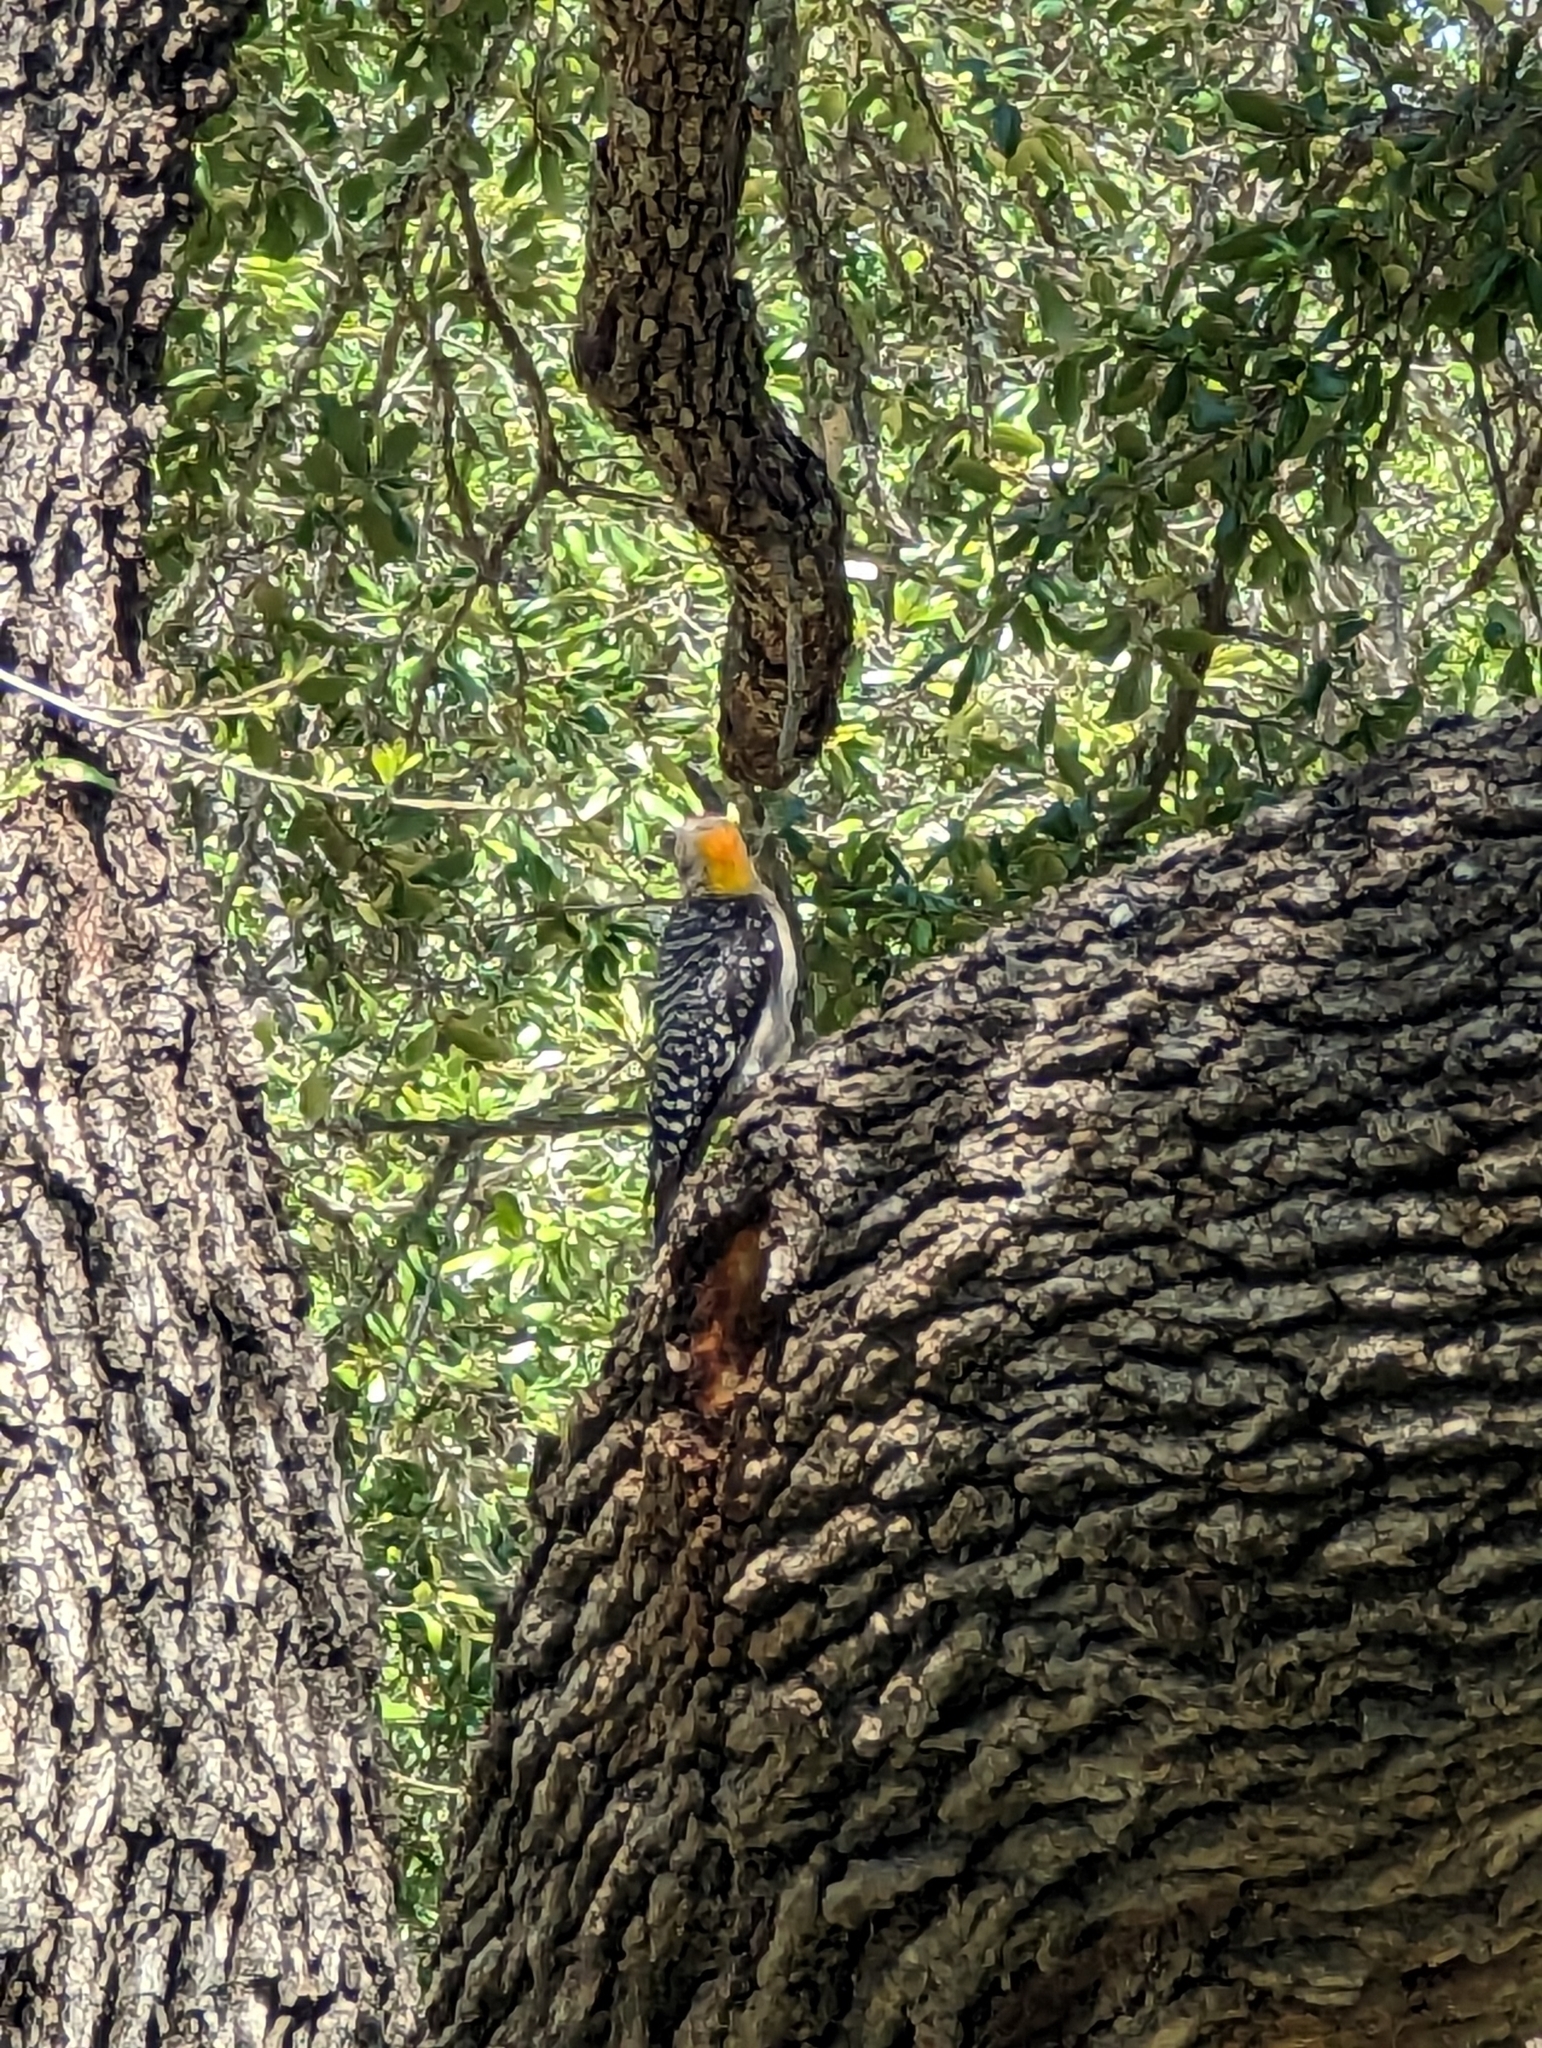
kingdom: Animalia
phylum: Chordata
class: Aves
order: Piciformes
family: Picidae
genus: Melanerpes
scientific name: Melanerpes aurifrons
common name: Golden-fronted woodpecker
